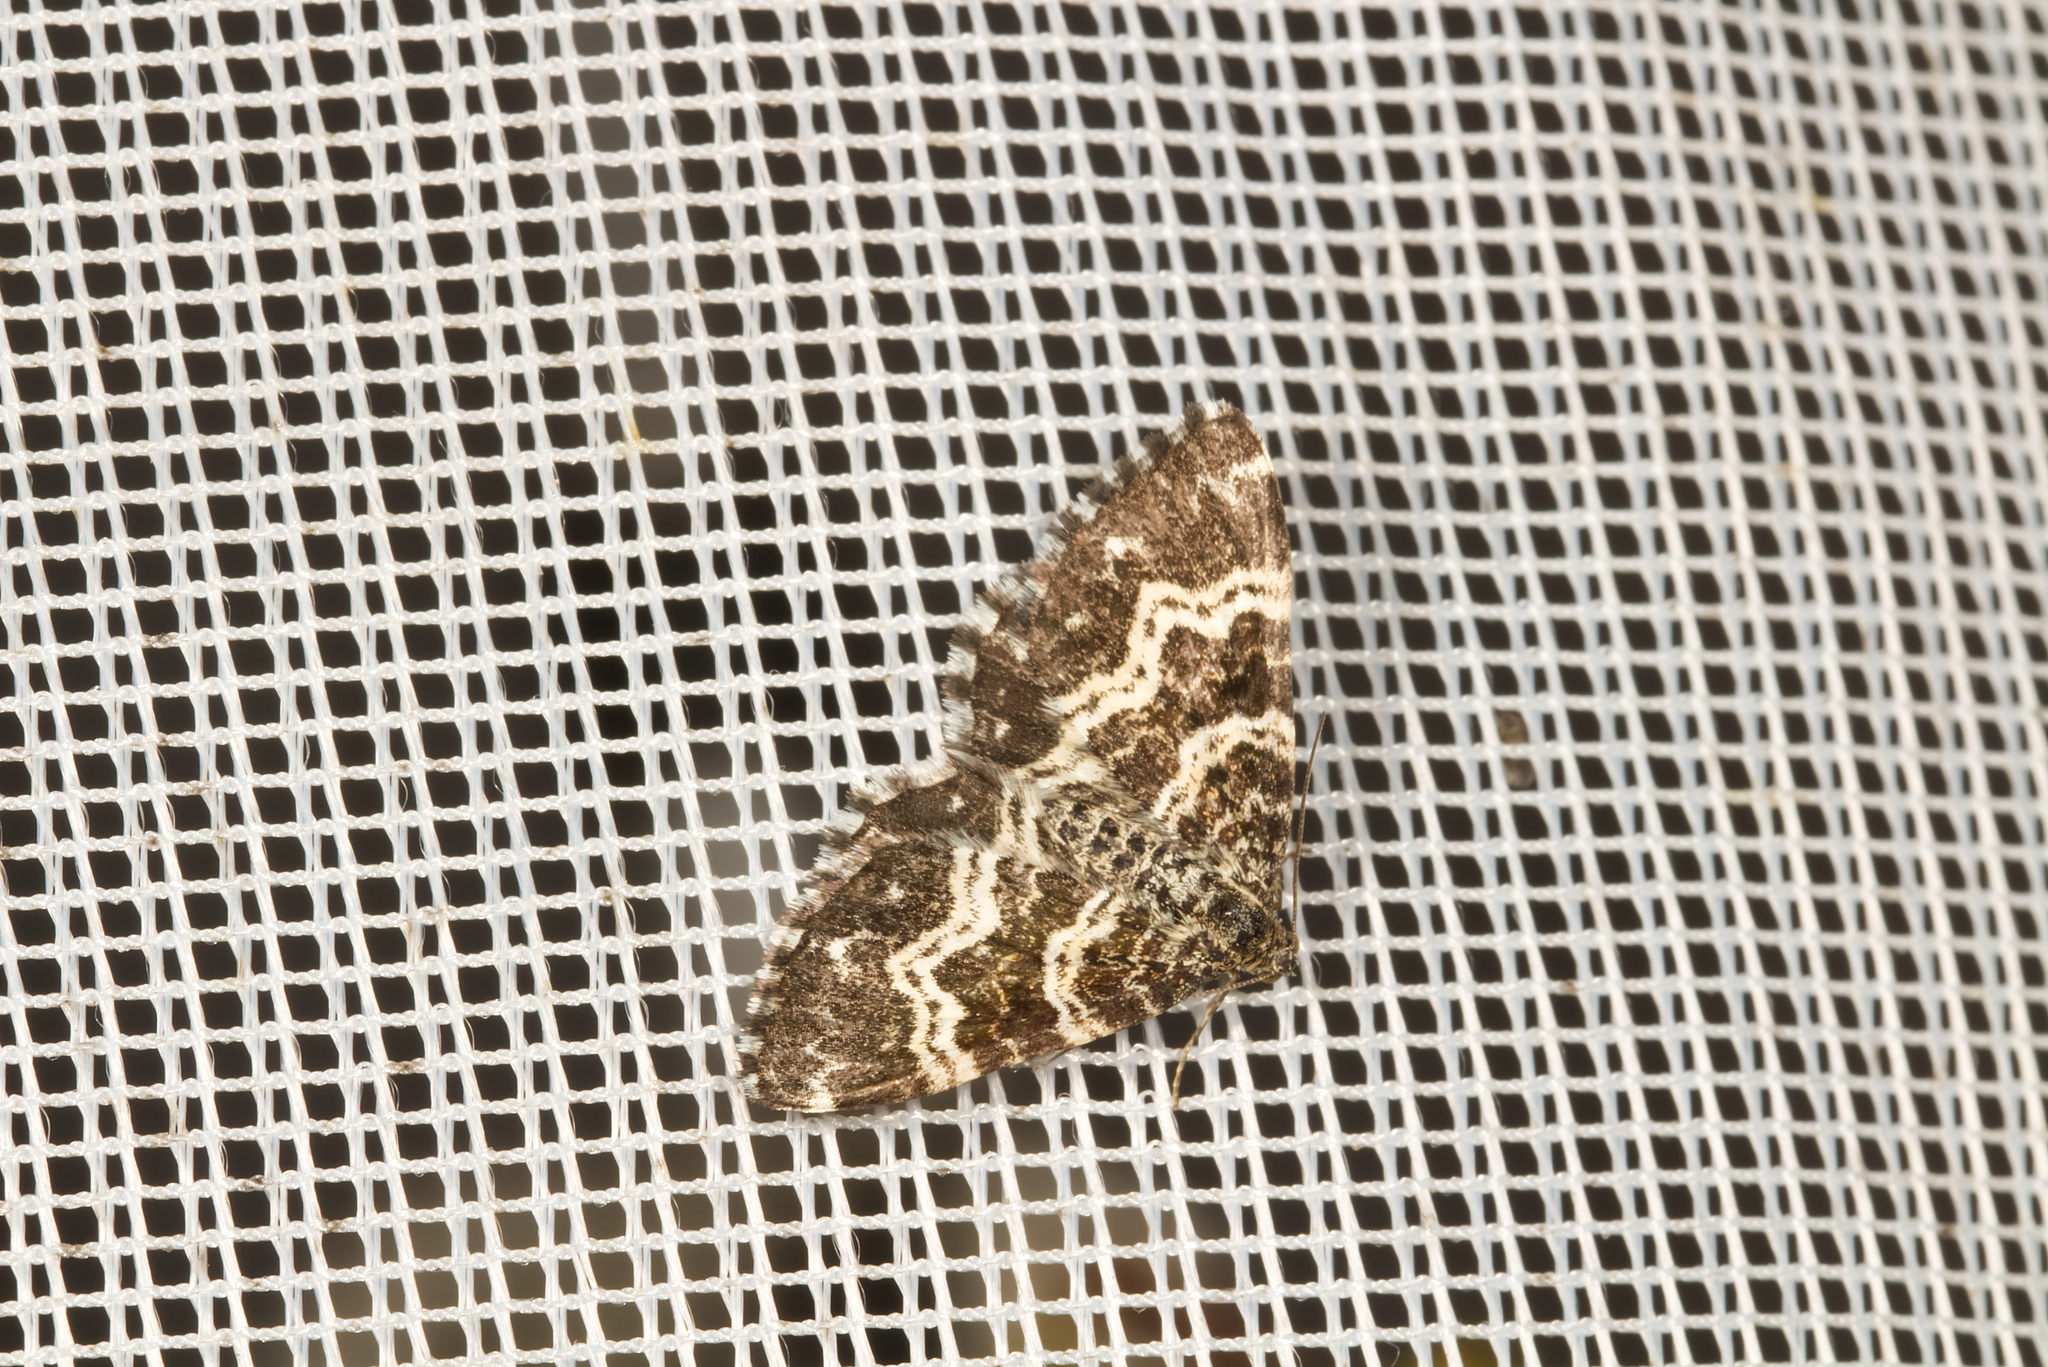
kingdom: Animalia
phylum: Arthropoda
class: Insecta
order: Lepidoptera
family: Geometridae
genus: Epirrhoe
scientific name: Epirrhoe tristata
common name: Small argent & sable
